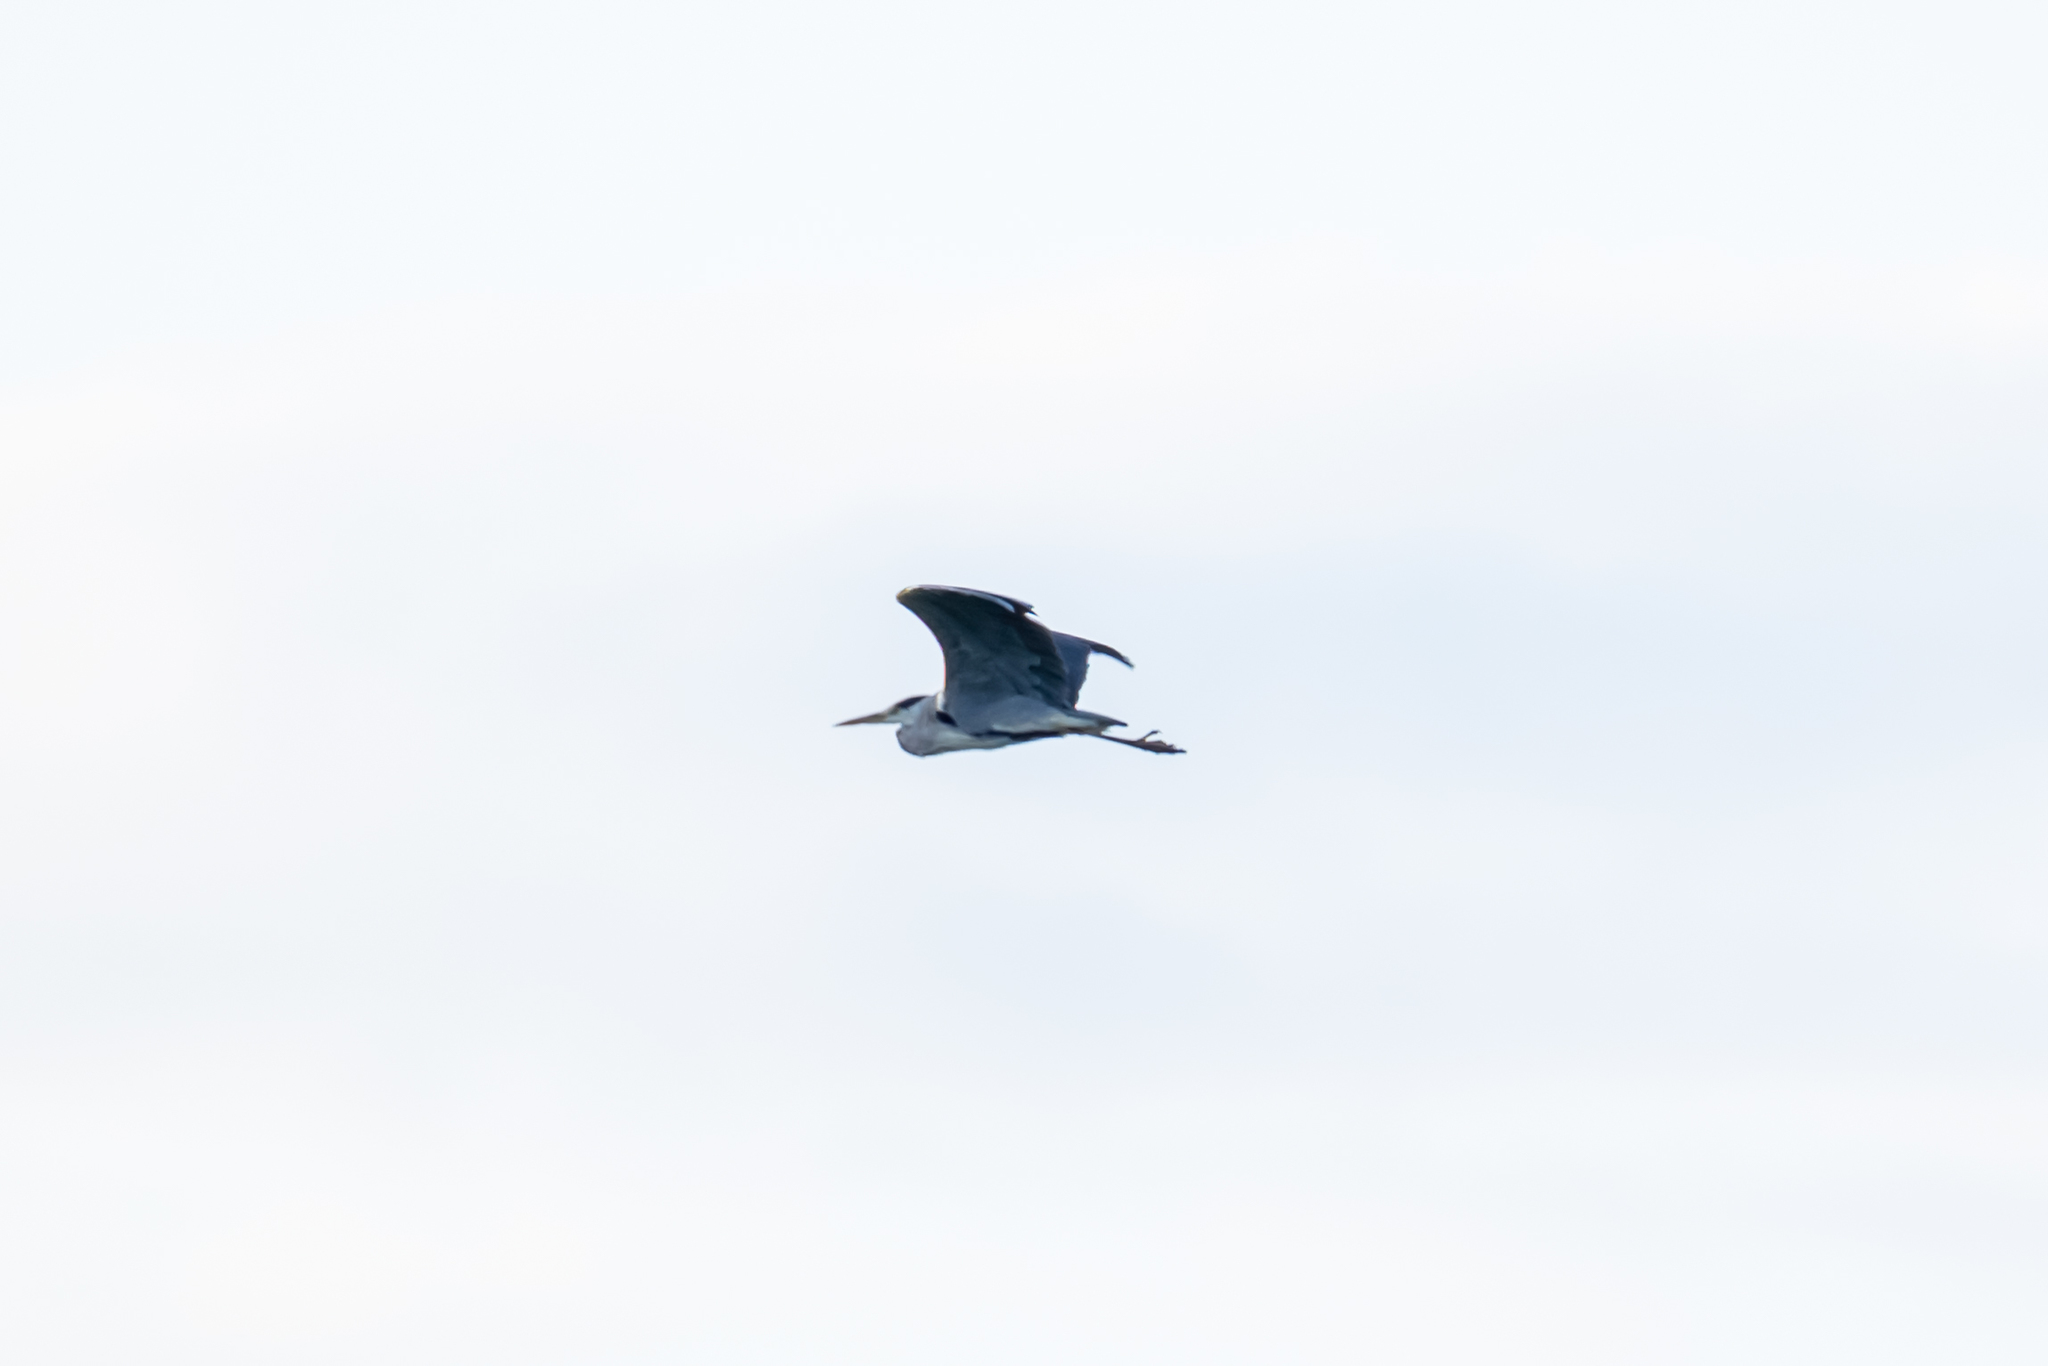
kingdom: Animalia
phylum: Chordata
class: Aves
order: Pelecaniformes
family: Ardeidae
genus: Ardea
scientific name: Ardea cinerea
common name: Grey heron
